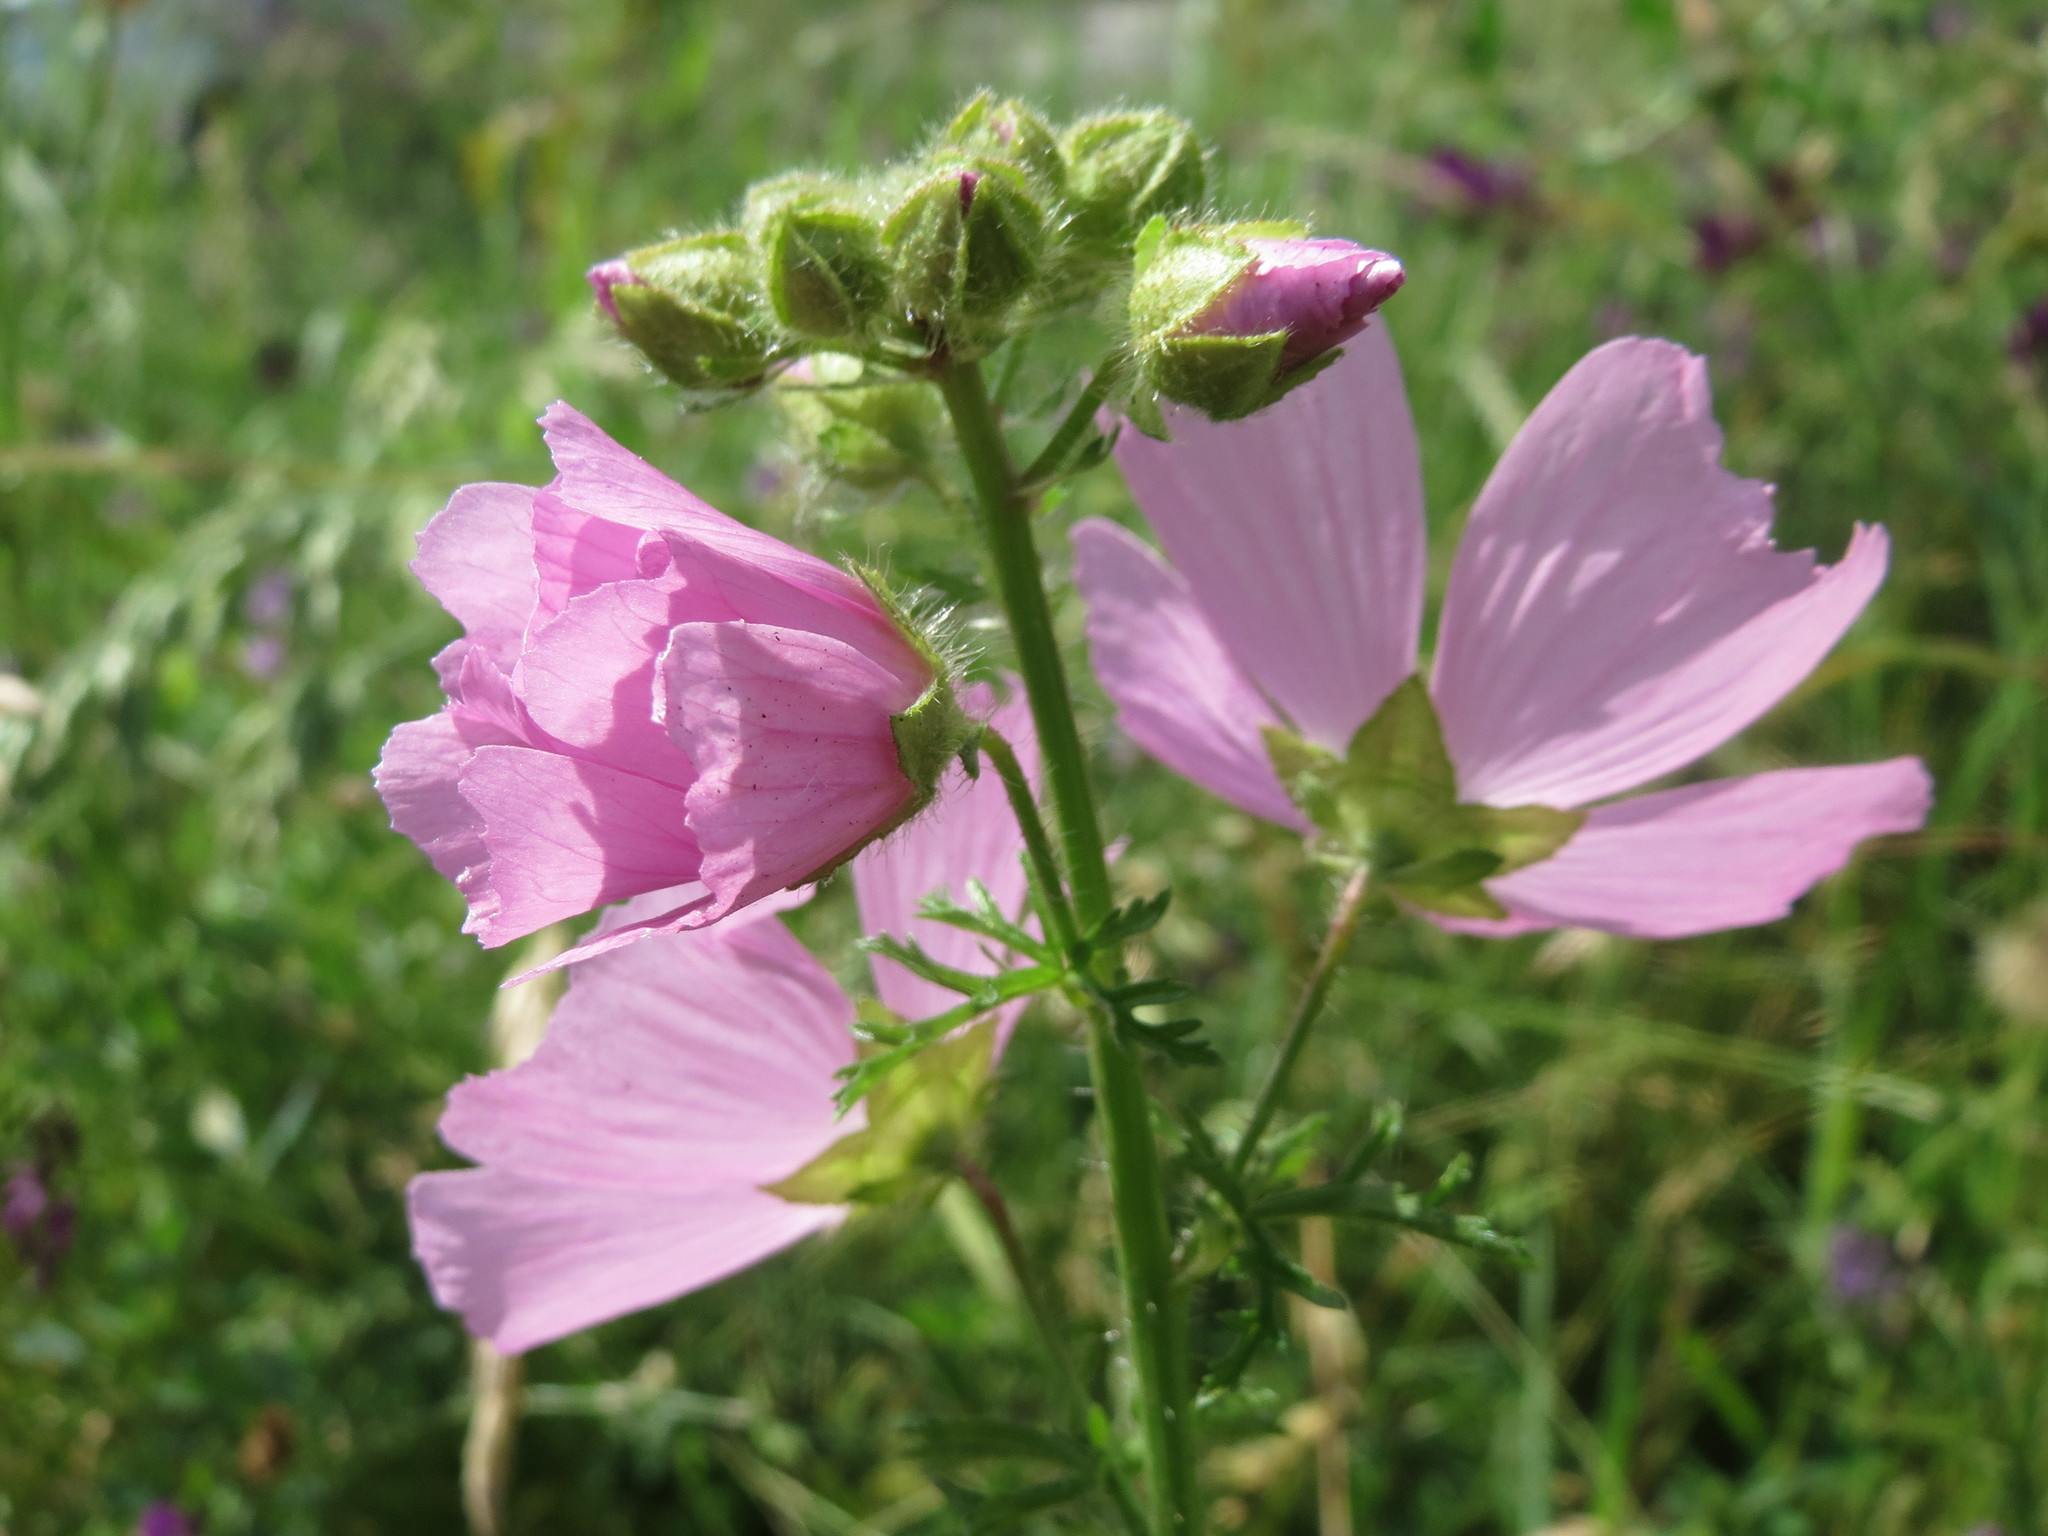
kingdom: Plantae
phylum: Tracheophyta
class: Magnoliopsida
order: Malvales
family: Malvaceae
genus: Malva
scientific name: Malva moschata
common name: Musk mallow
